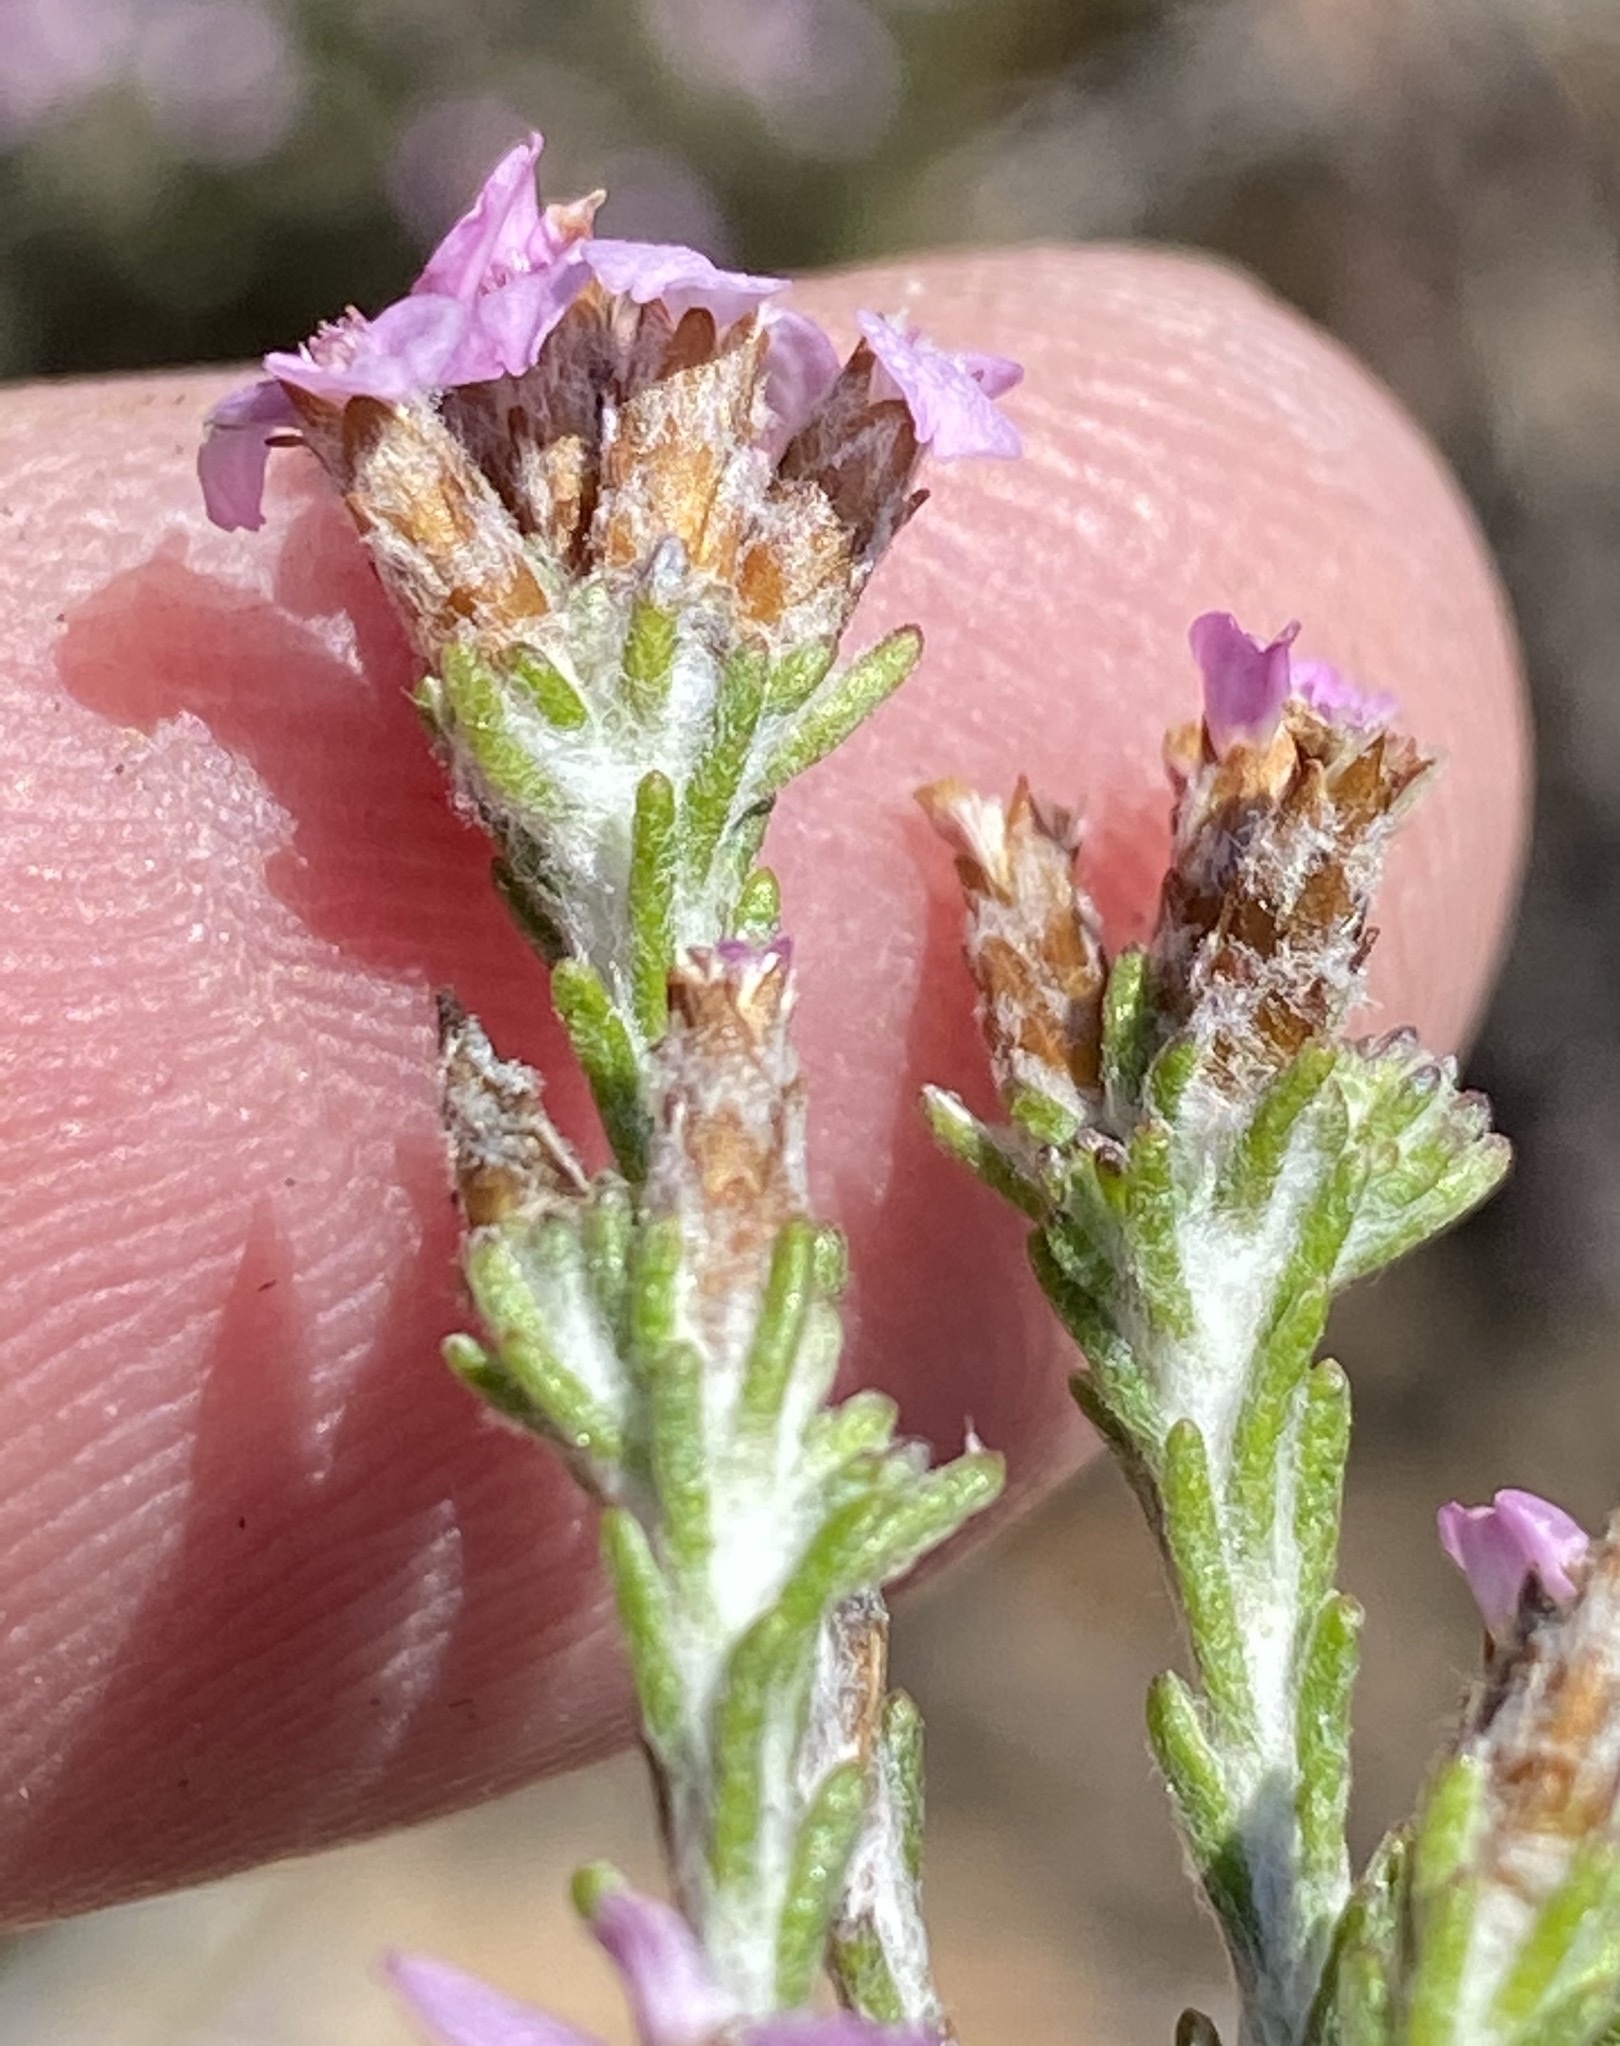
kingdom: Plantae
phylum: Tracheophyta
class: Magnoliopsida
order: Asterales
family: Asteraceae
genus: Disparago
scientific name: Disparago kolbei
